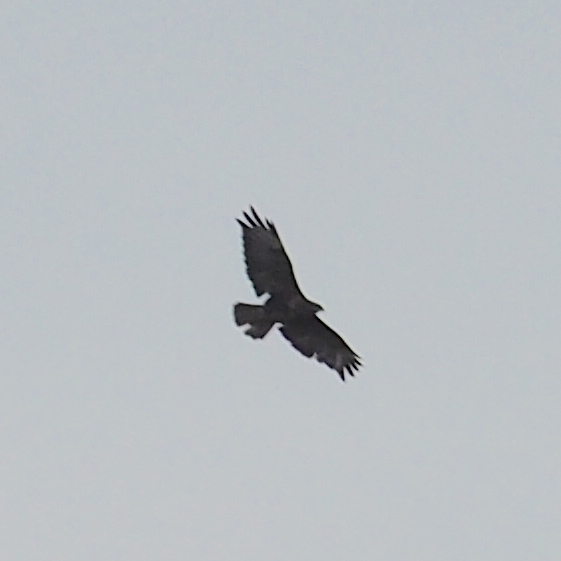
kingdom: Animalia
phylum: Chordata
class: Aves
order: Accipitriformes
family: Accipitridae
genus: Buteo
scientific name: Buteo buteo
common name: Common buzzard
